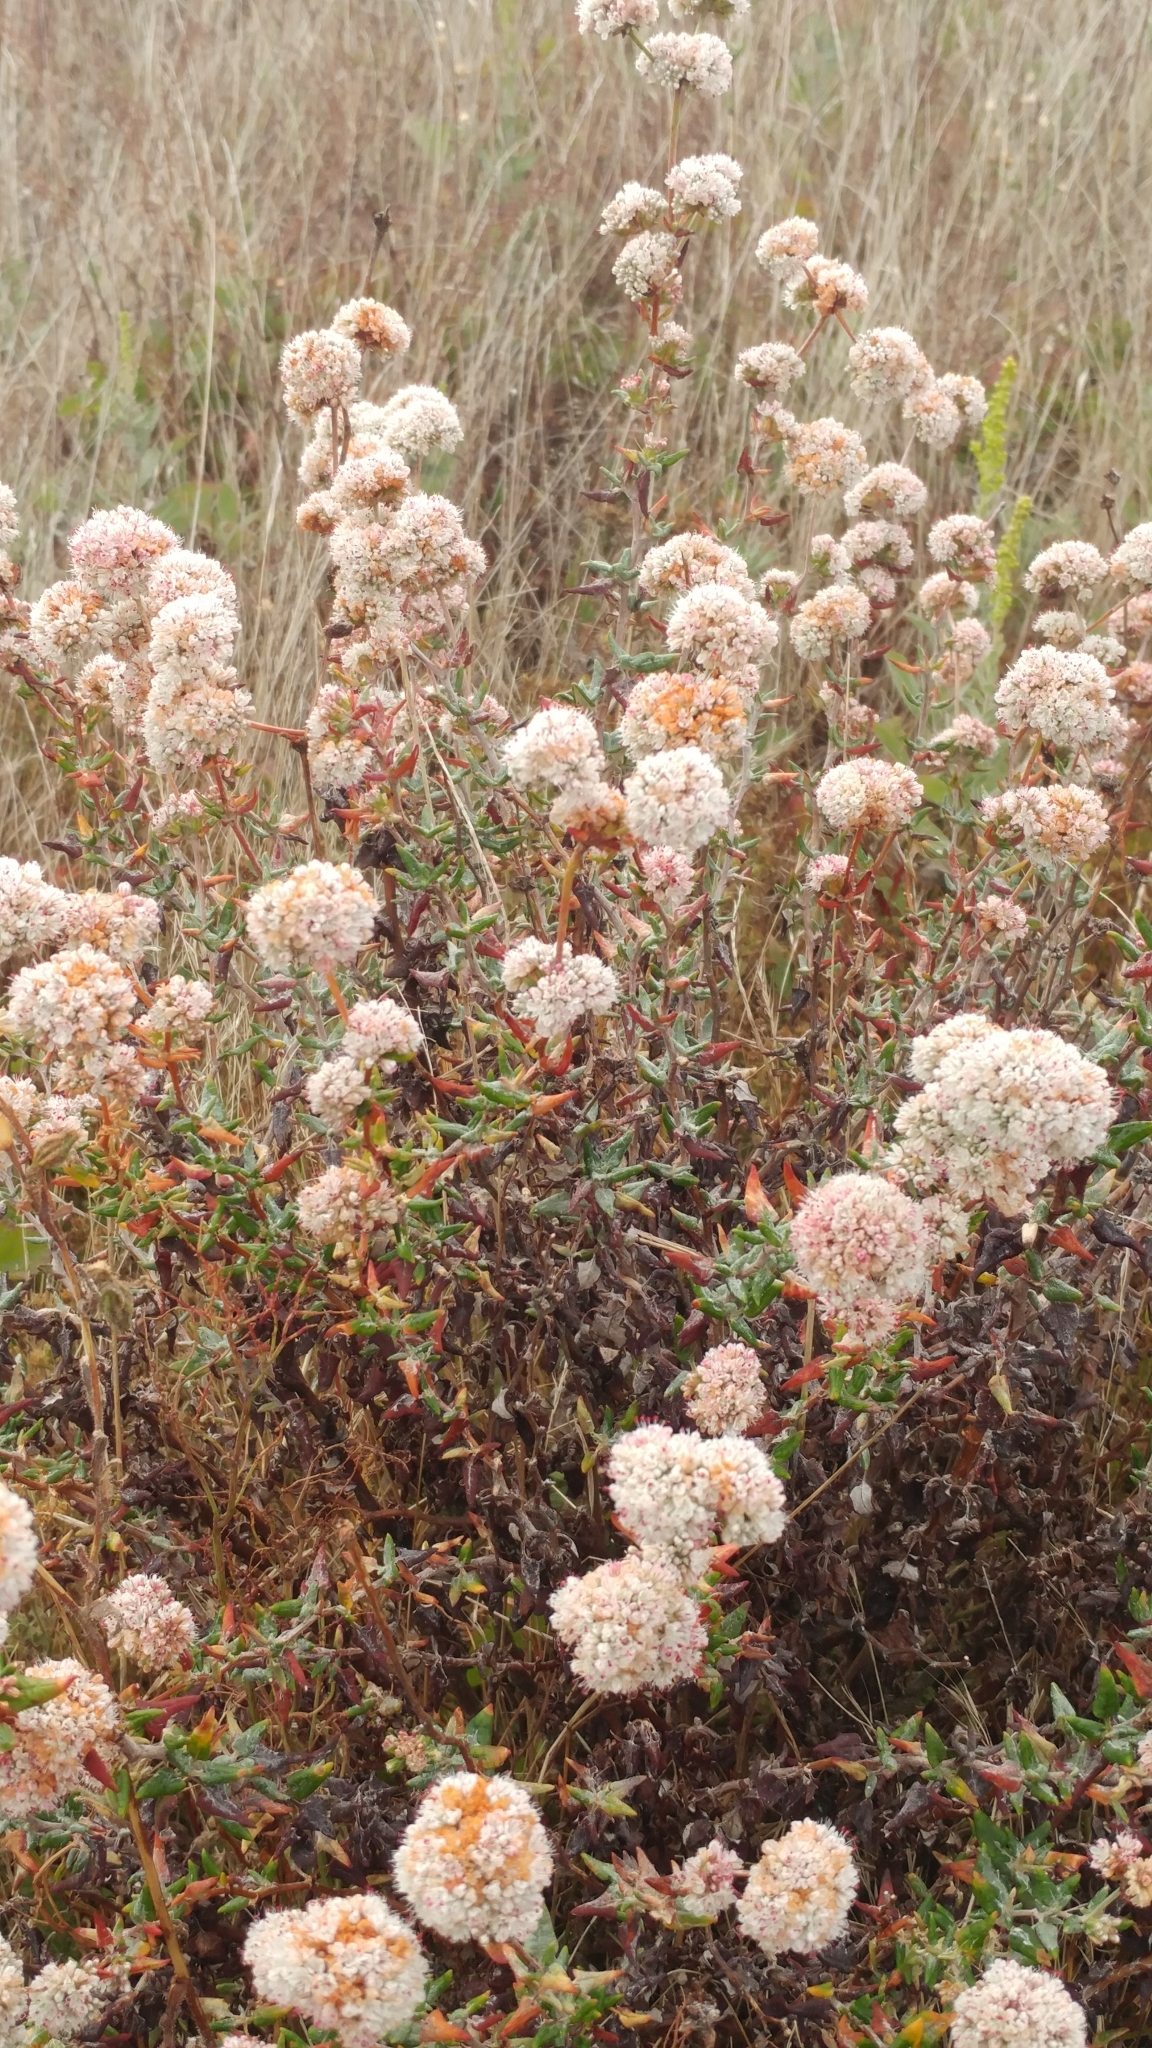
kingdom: Plantae
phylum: Tracheophyta
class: Magnoliopsida
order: Caryophyllales
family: Polygonaceae
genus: Eriogonum
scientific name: Eriogonum parvifolium
